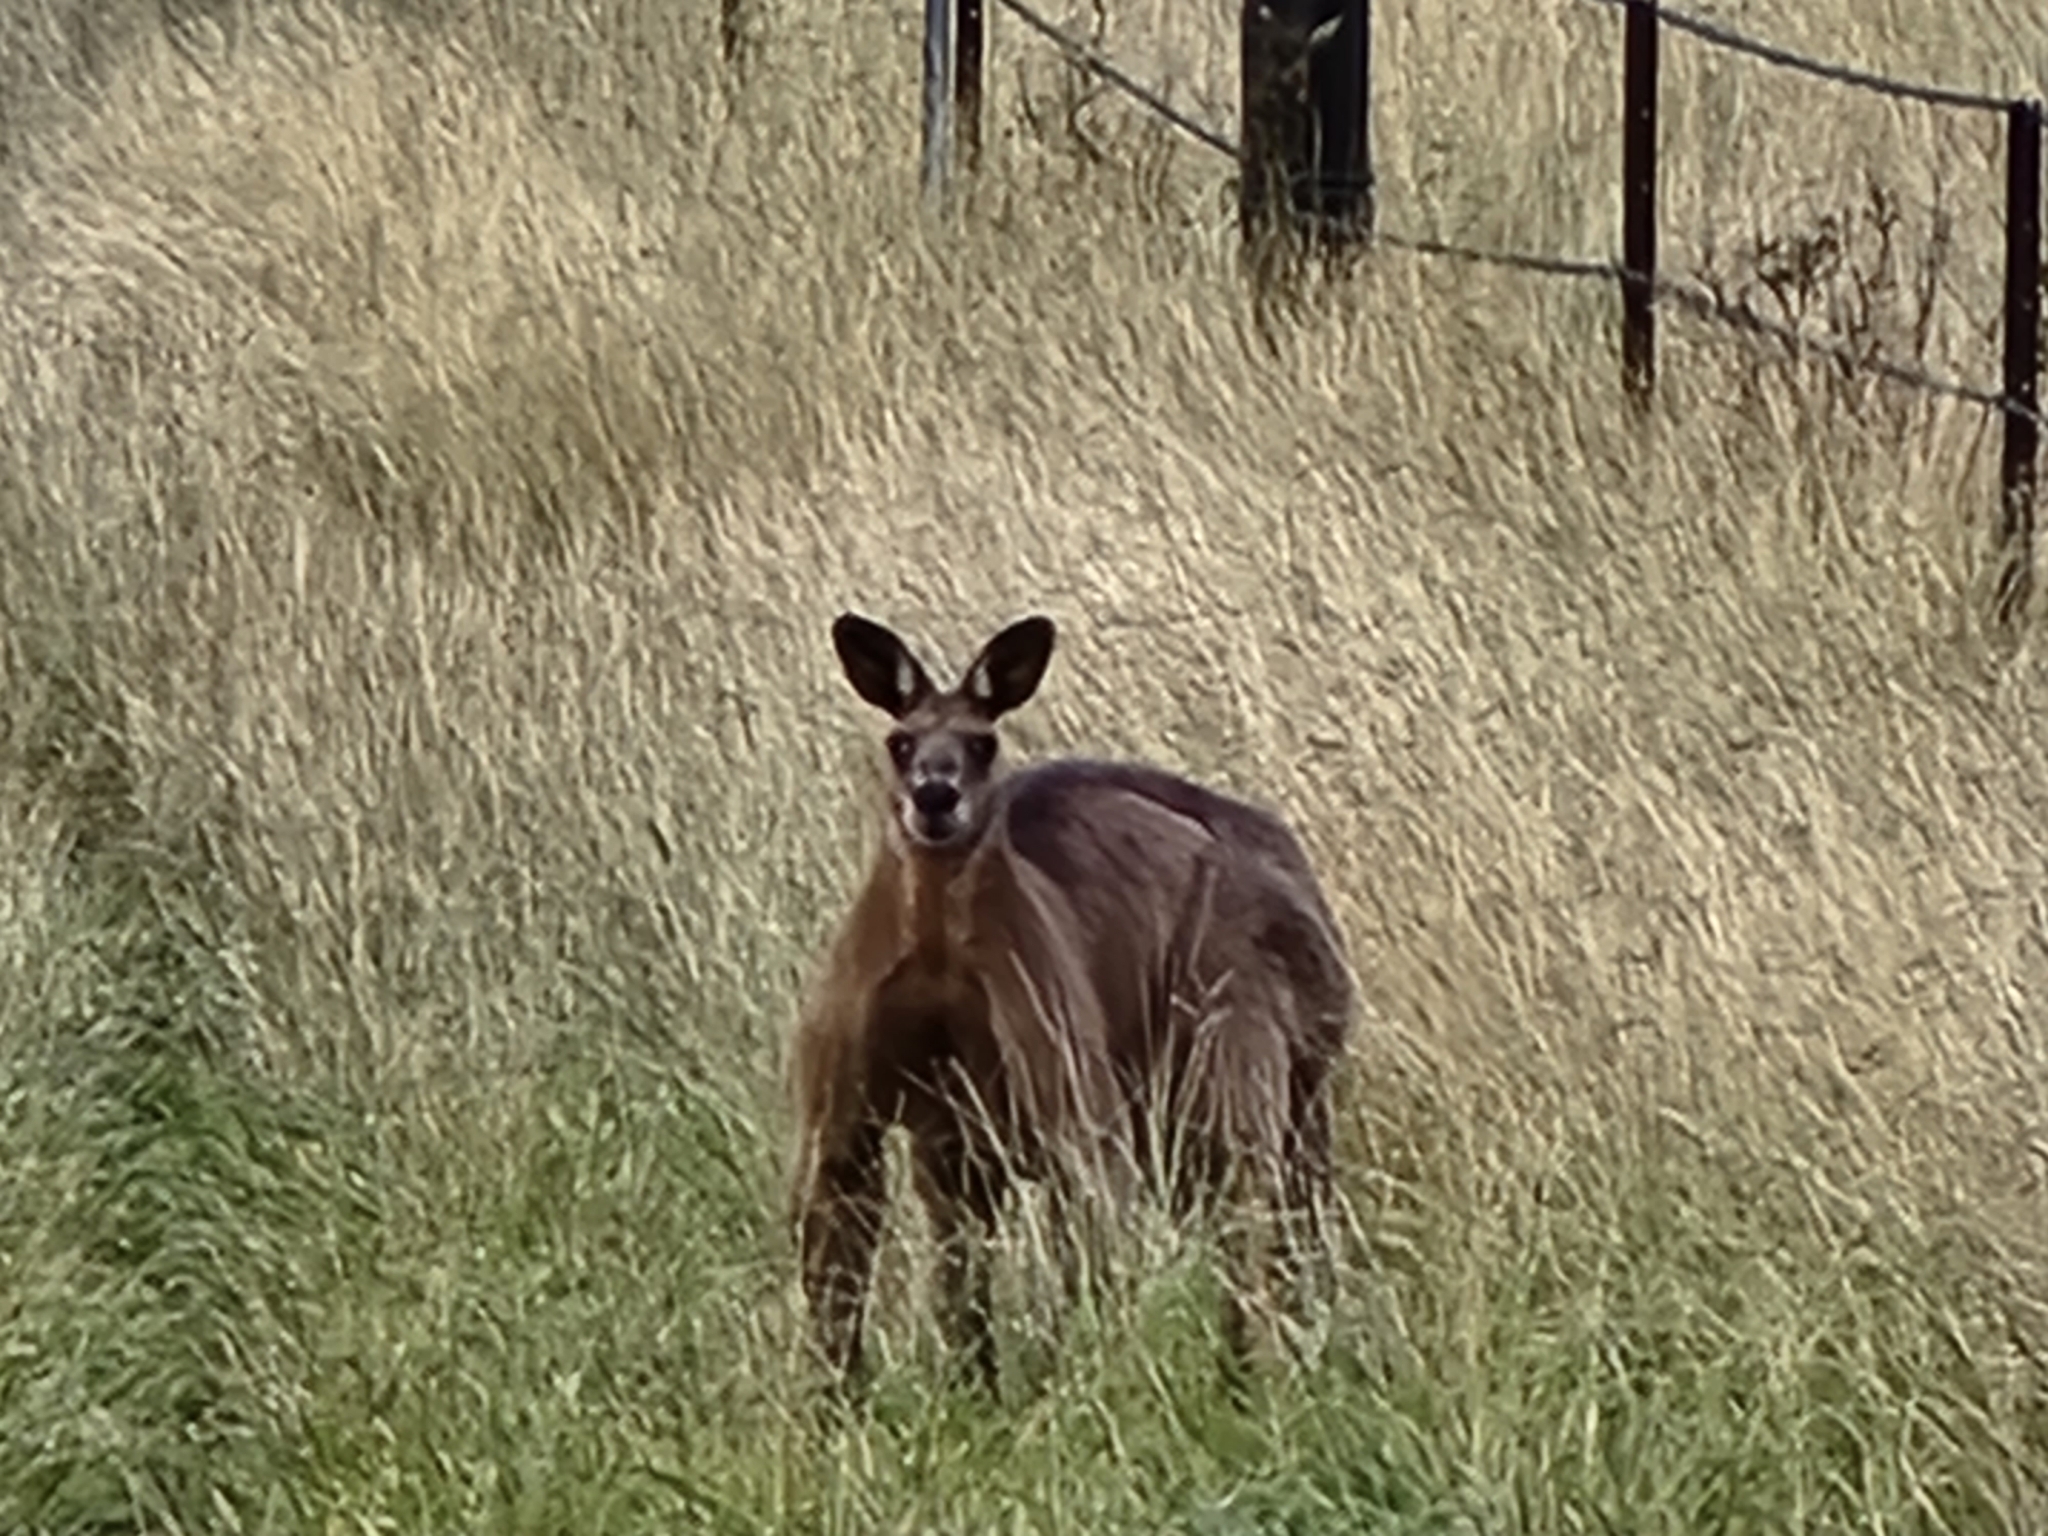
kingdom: Animalia
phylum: Chordata
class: Mammalia
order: Diprotodontia
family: Macropodidae
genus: Macropus
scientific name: Macropus giganteus
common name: Eastern grey kangaroo
